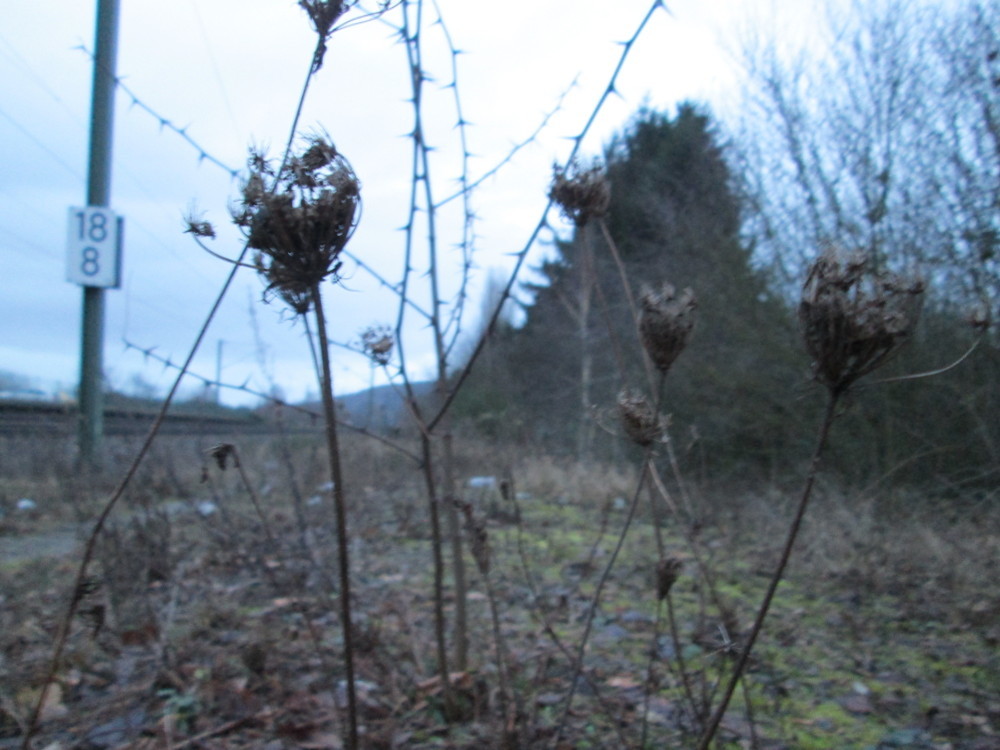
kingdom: Plantae
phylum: Tracheophyta
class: Magnoliopsida
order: Fabales
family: Fabaceae
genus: Robinia
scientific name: Robinia pseudoacacia
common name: Black locust
